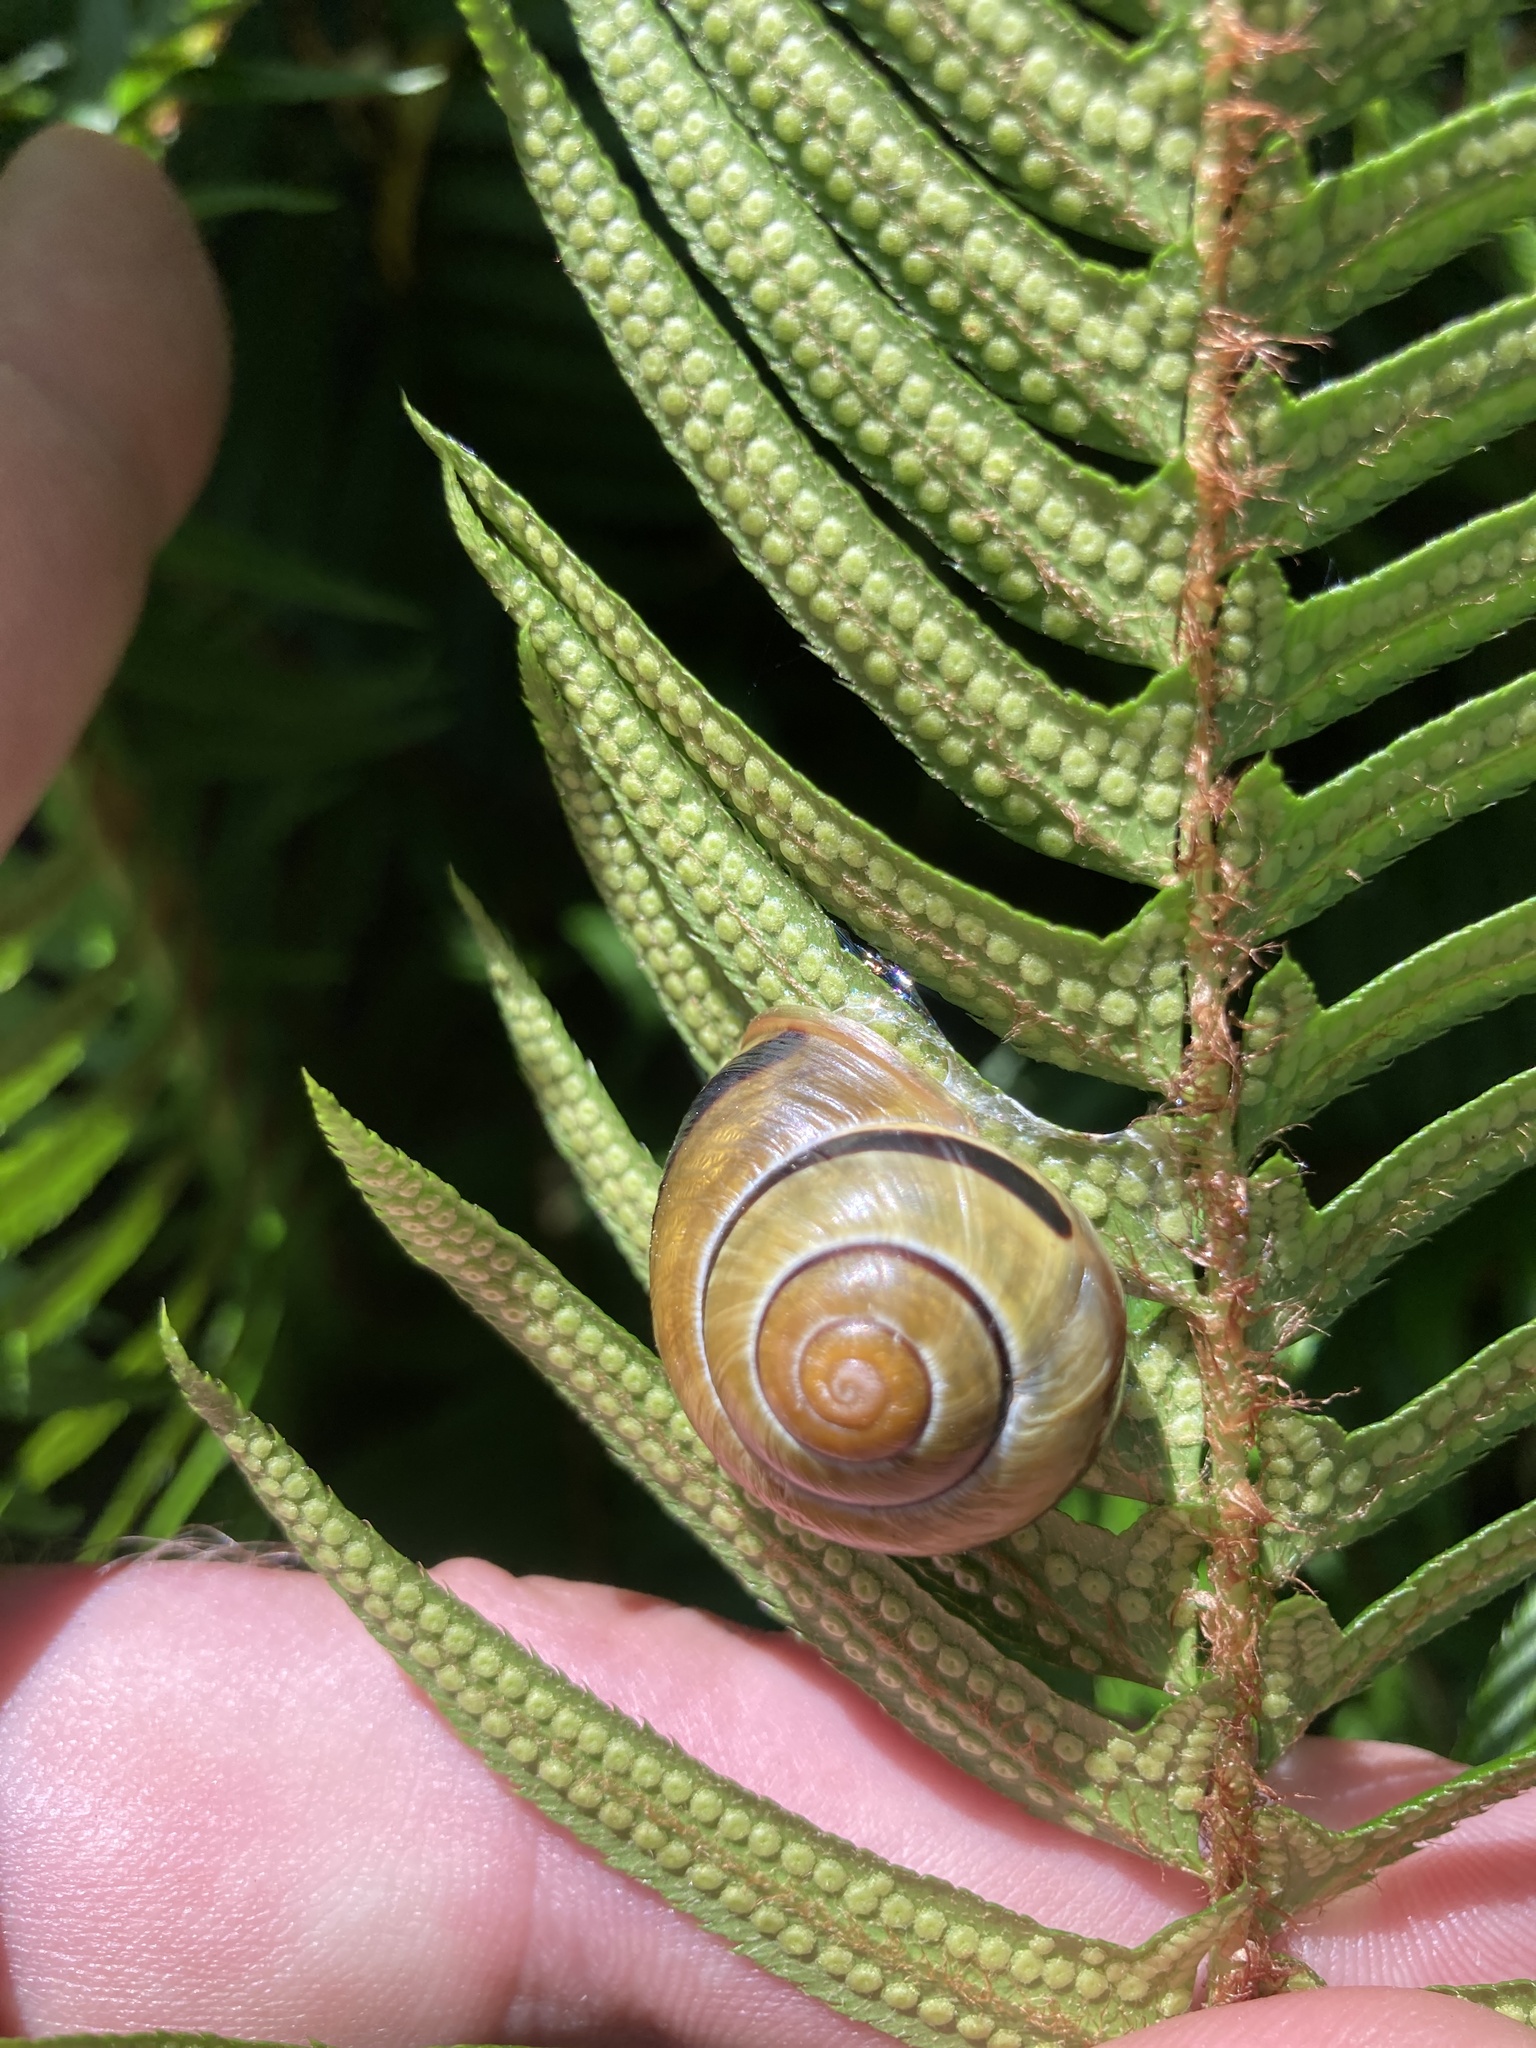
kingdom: Animalia
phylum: Mollusca
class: Gastropoda
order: Stylommatophora
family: Helicidae
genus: Cepaea
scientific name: Cepaea nemoralis
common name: Grovesnail
